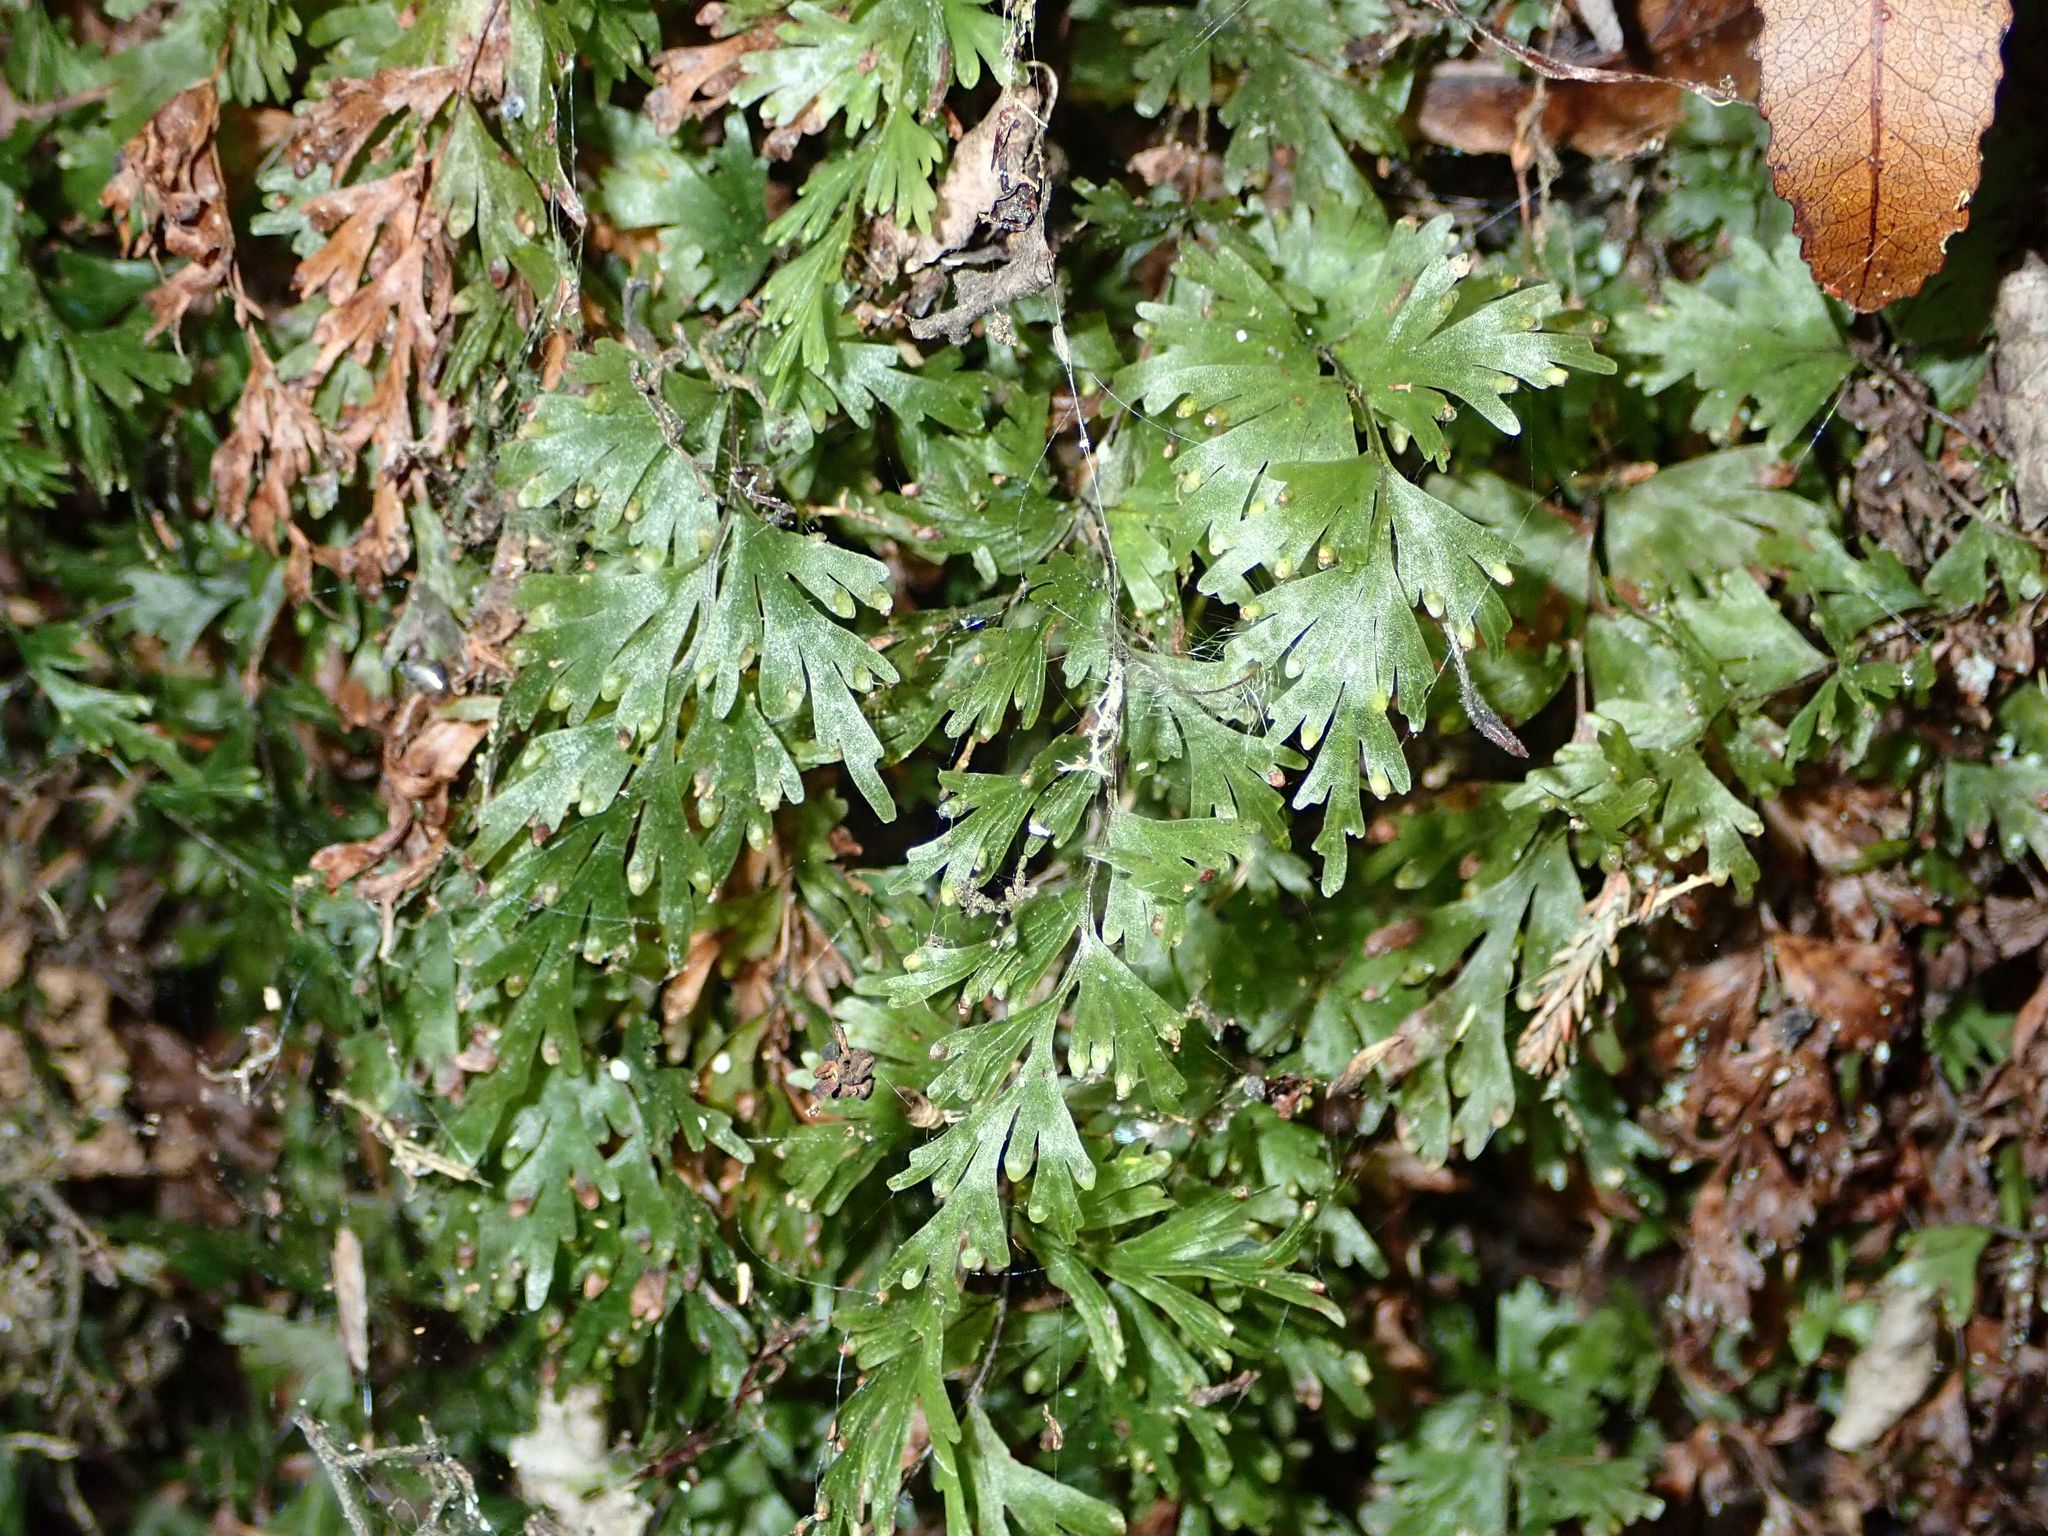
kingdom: Plantae
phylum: Tracheophyta
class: Polypodiopsida
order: Hymenophyllales
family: Hymenophyllaceae
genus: Hymenophyllum
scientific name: Hymenophyllum flabellatum
